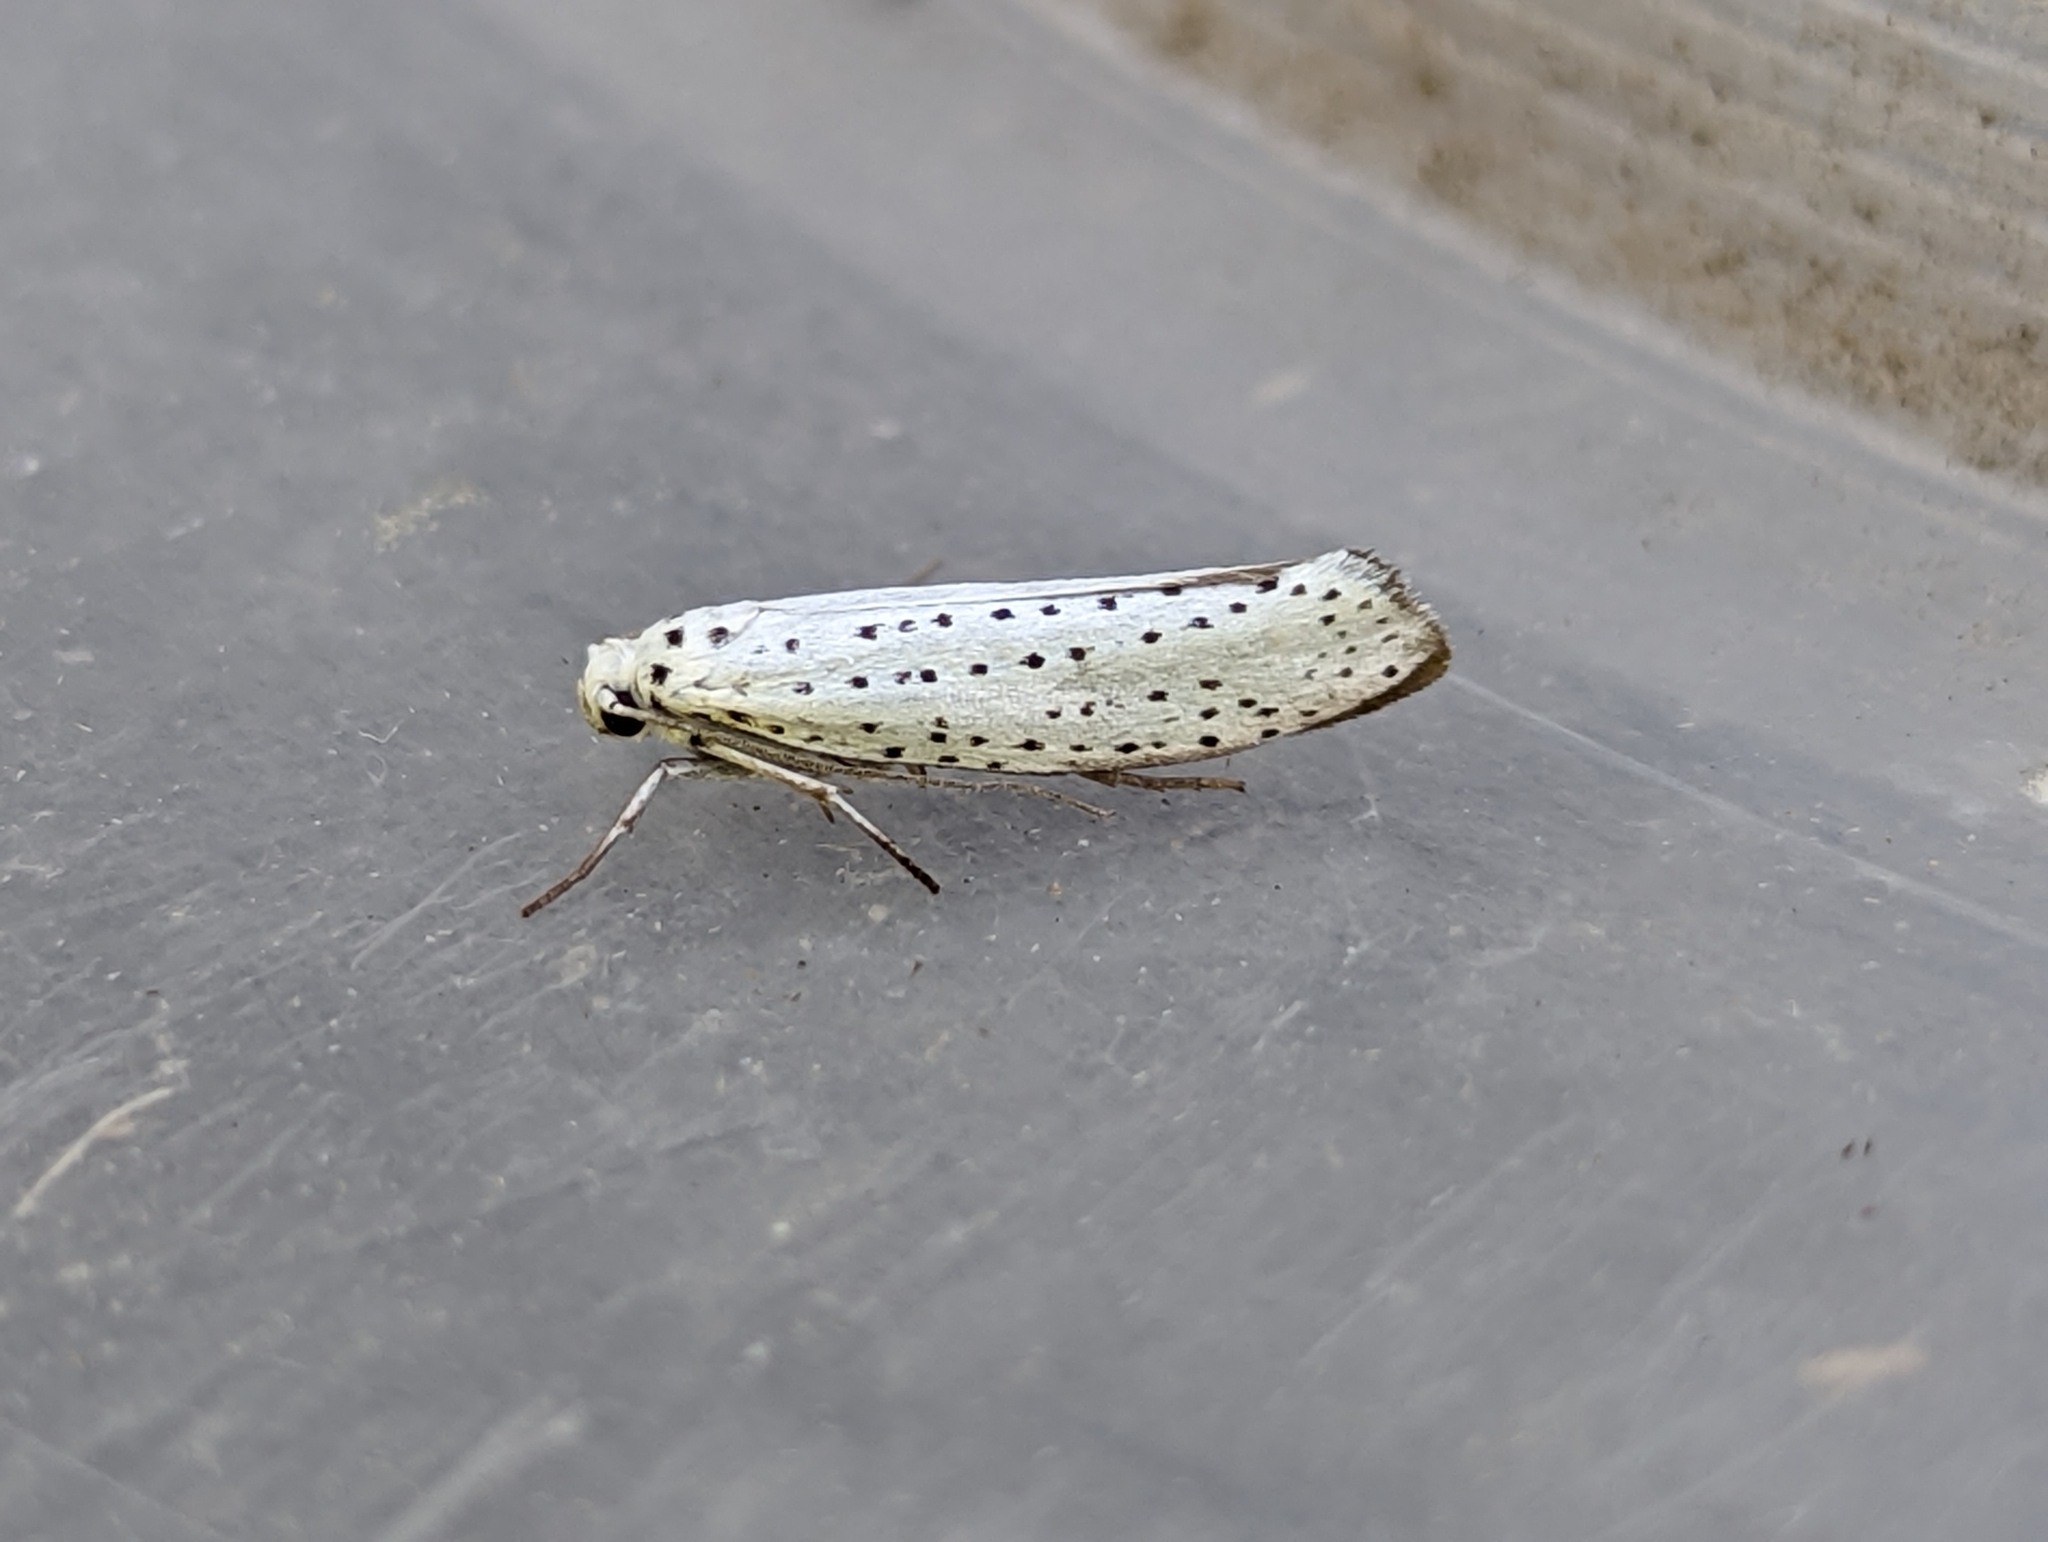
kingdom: Animalia
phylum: Arthropoda
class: Insecta
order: Lepidoptera
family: Yponomeutidae
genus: Yponomeuta
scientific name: Yponomeuta evonymella
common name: Bird-cherry ermine
